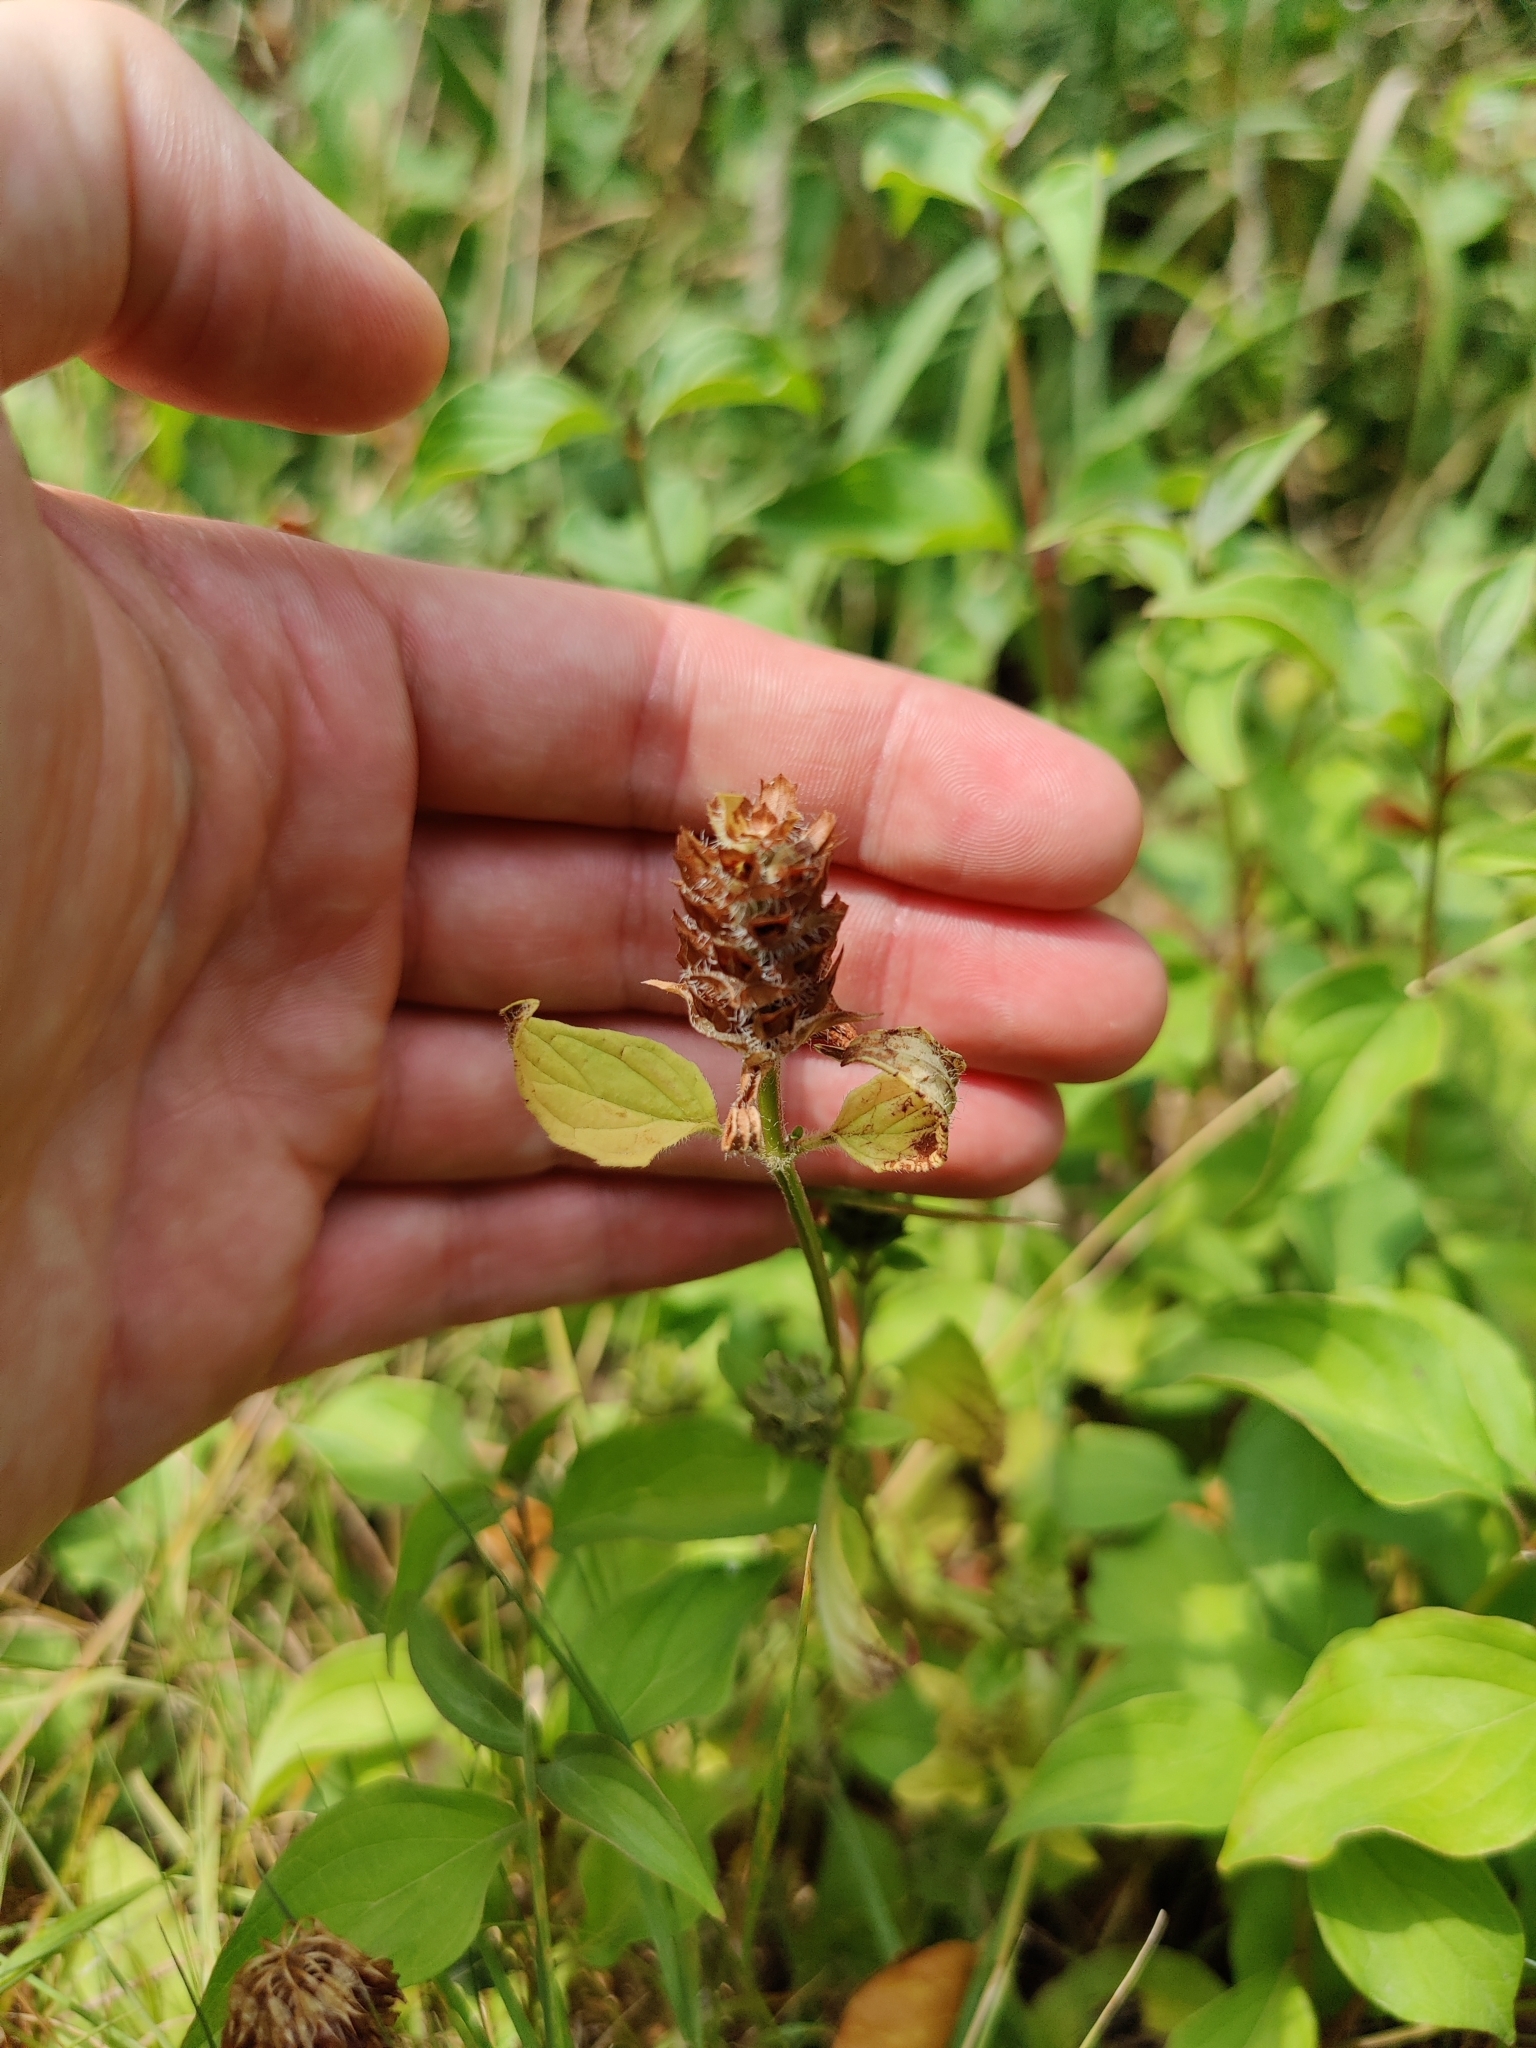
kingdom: Plantae
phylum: Tracheophyta
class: Magnoliopsida
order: Lamiales
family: Lamiaceae
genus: Prunella
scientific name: Prunella vulgaris
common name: Heal-all
